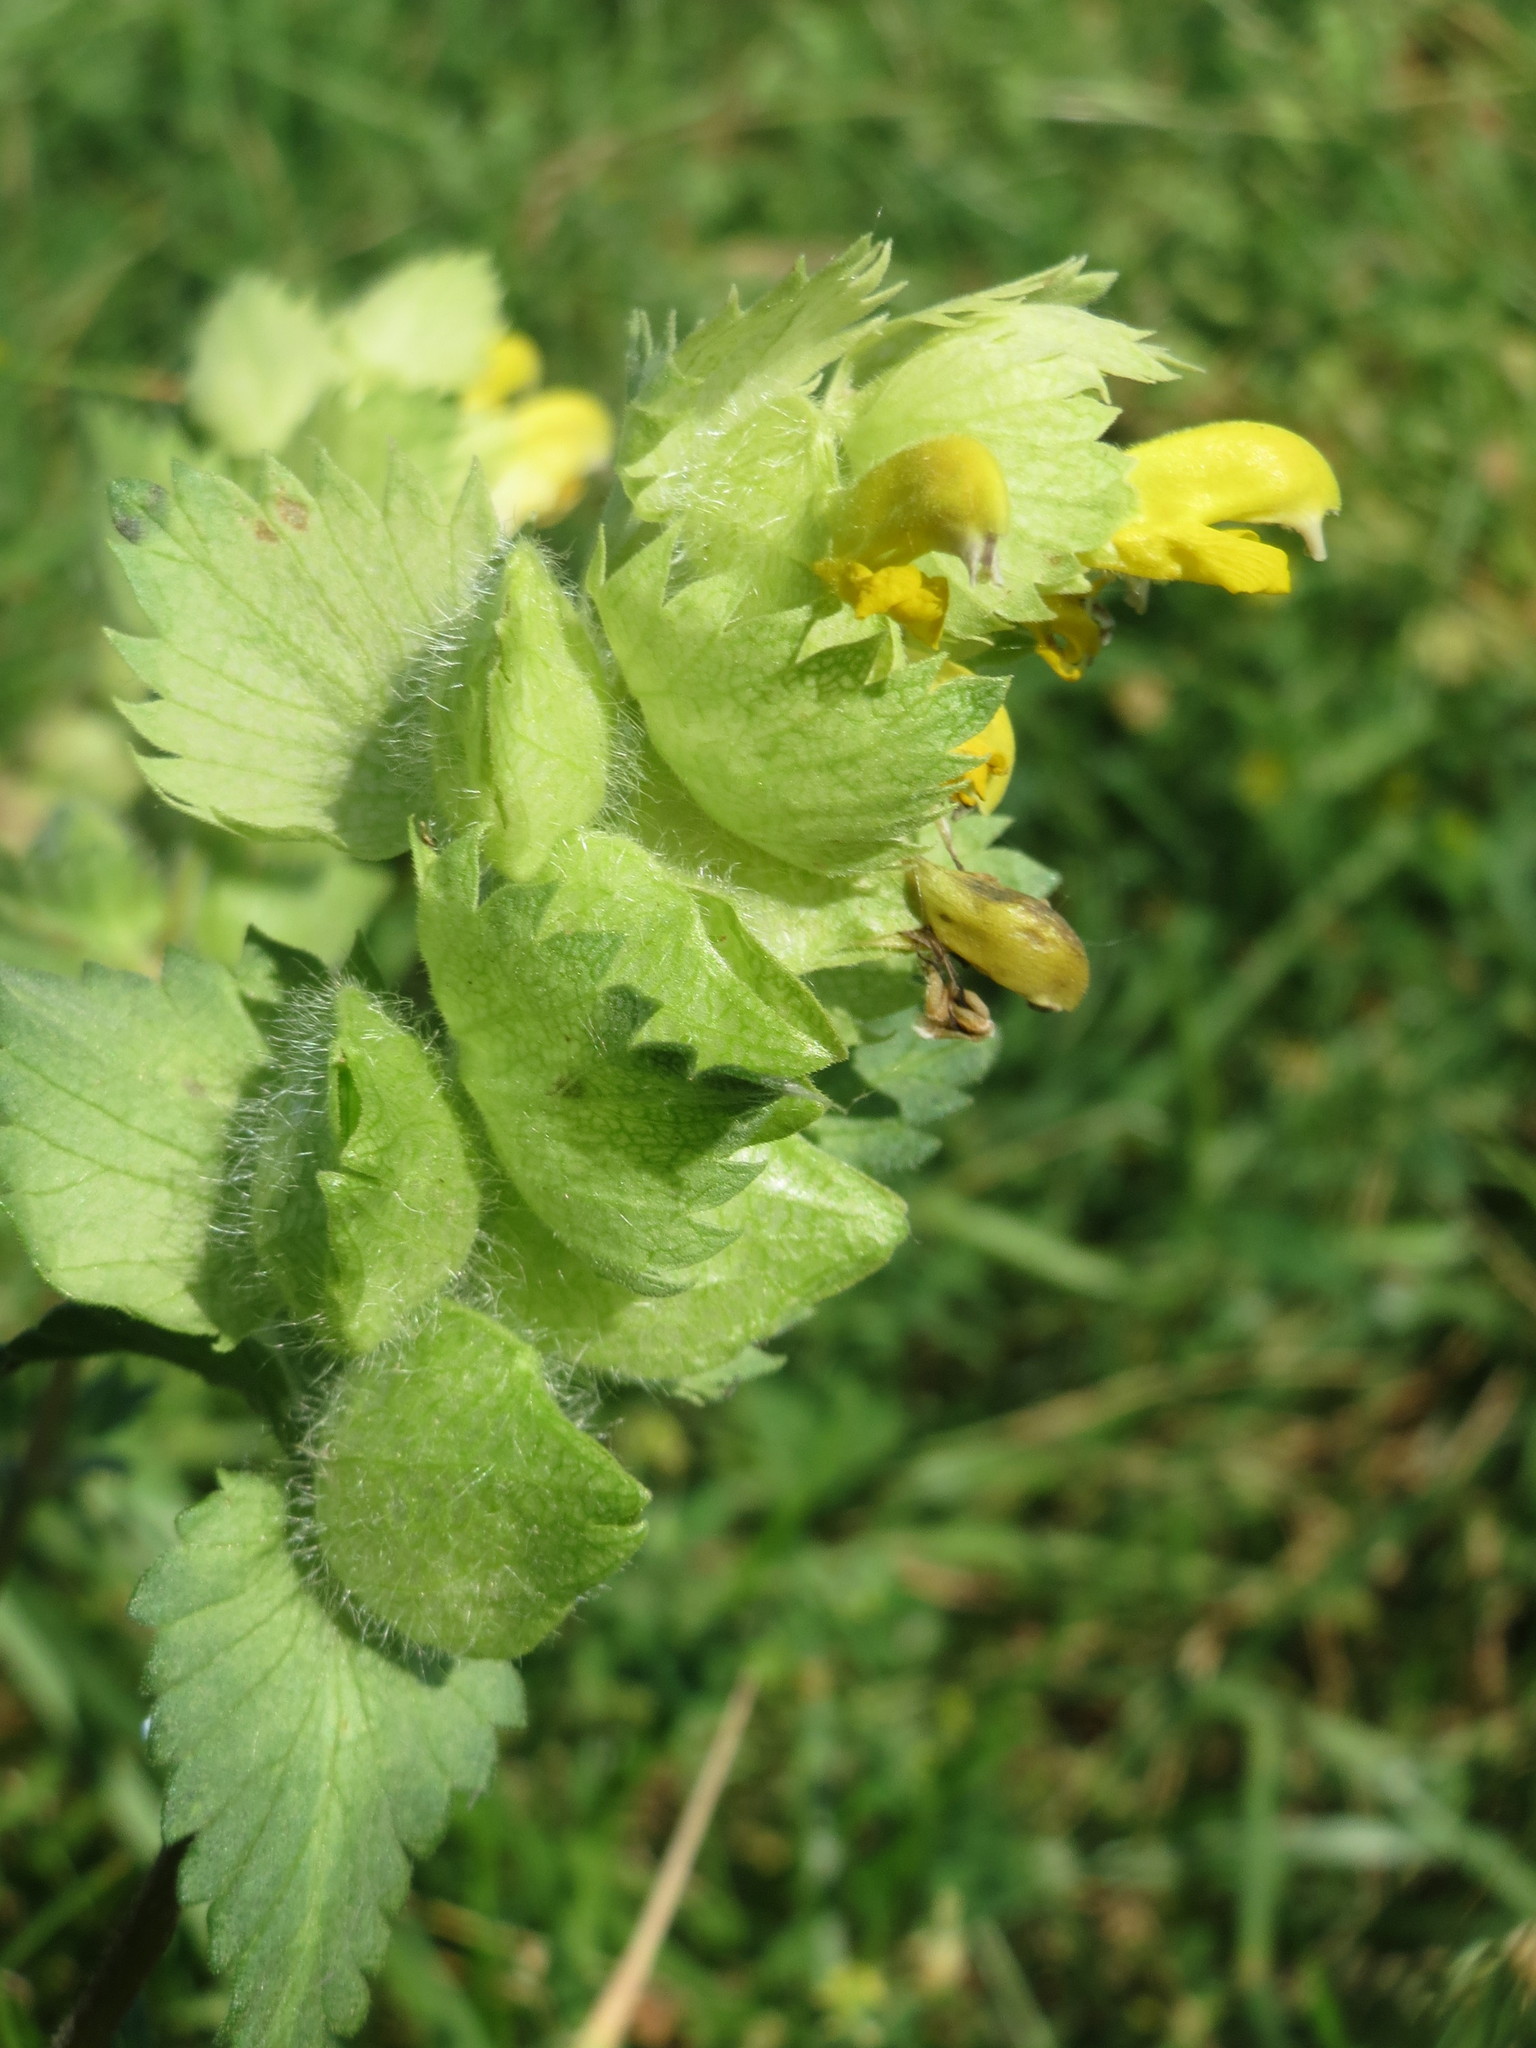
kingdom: Plantae
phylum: Tracheophyta
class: Magnoliopsida
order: Lamiales
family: Orobanchaceae
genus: Rhinanthus
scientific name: Rhinanthus alectorolophus
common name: Greater yellow-rattle
